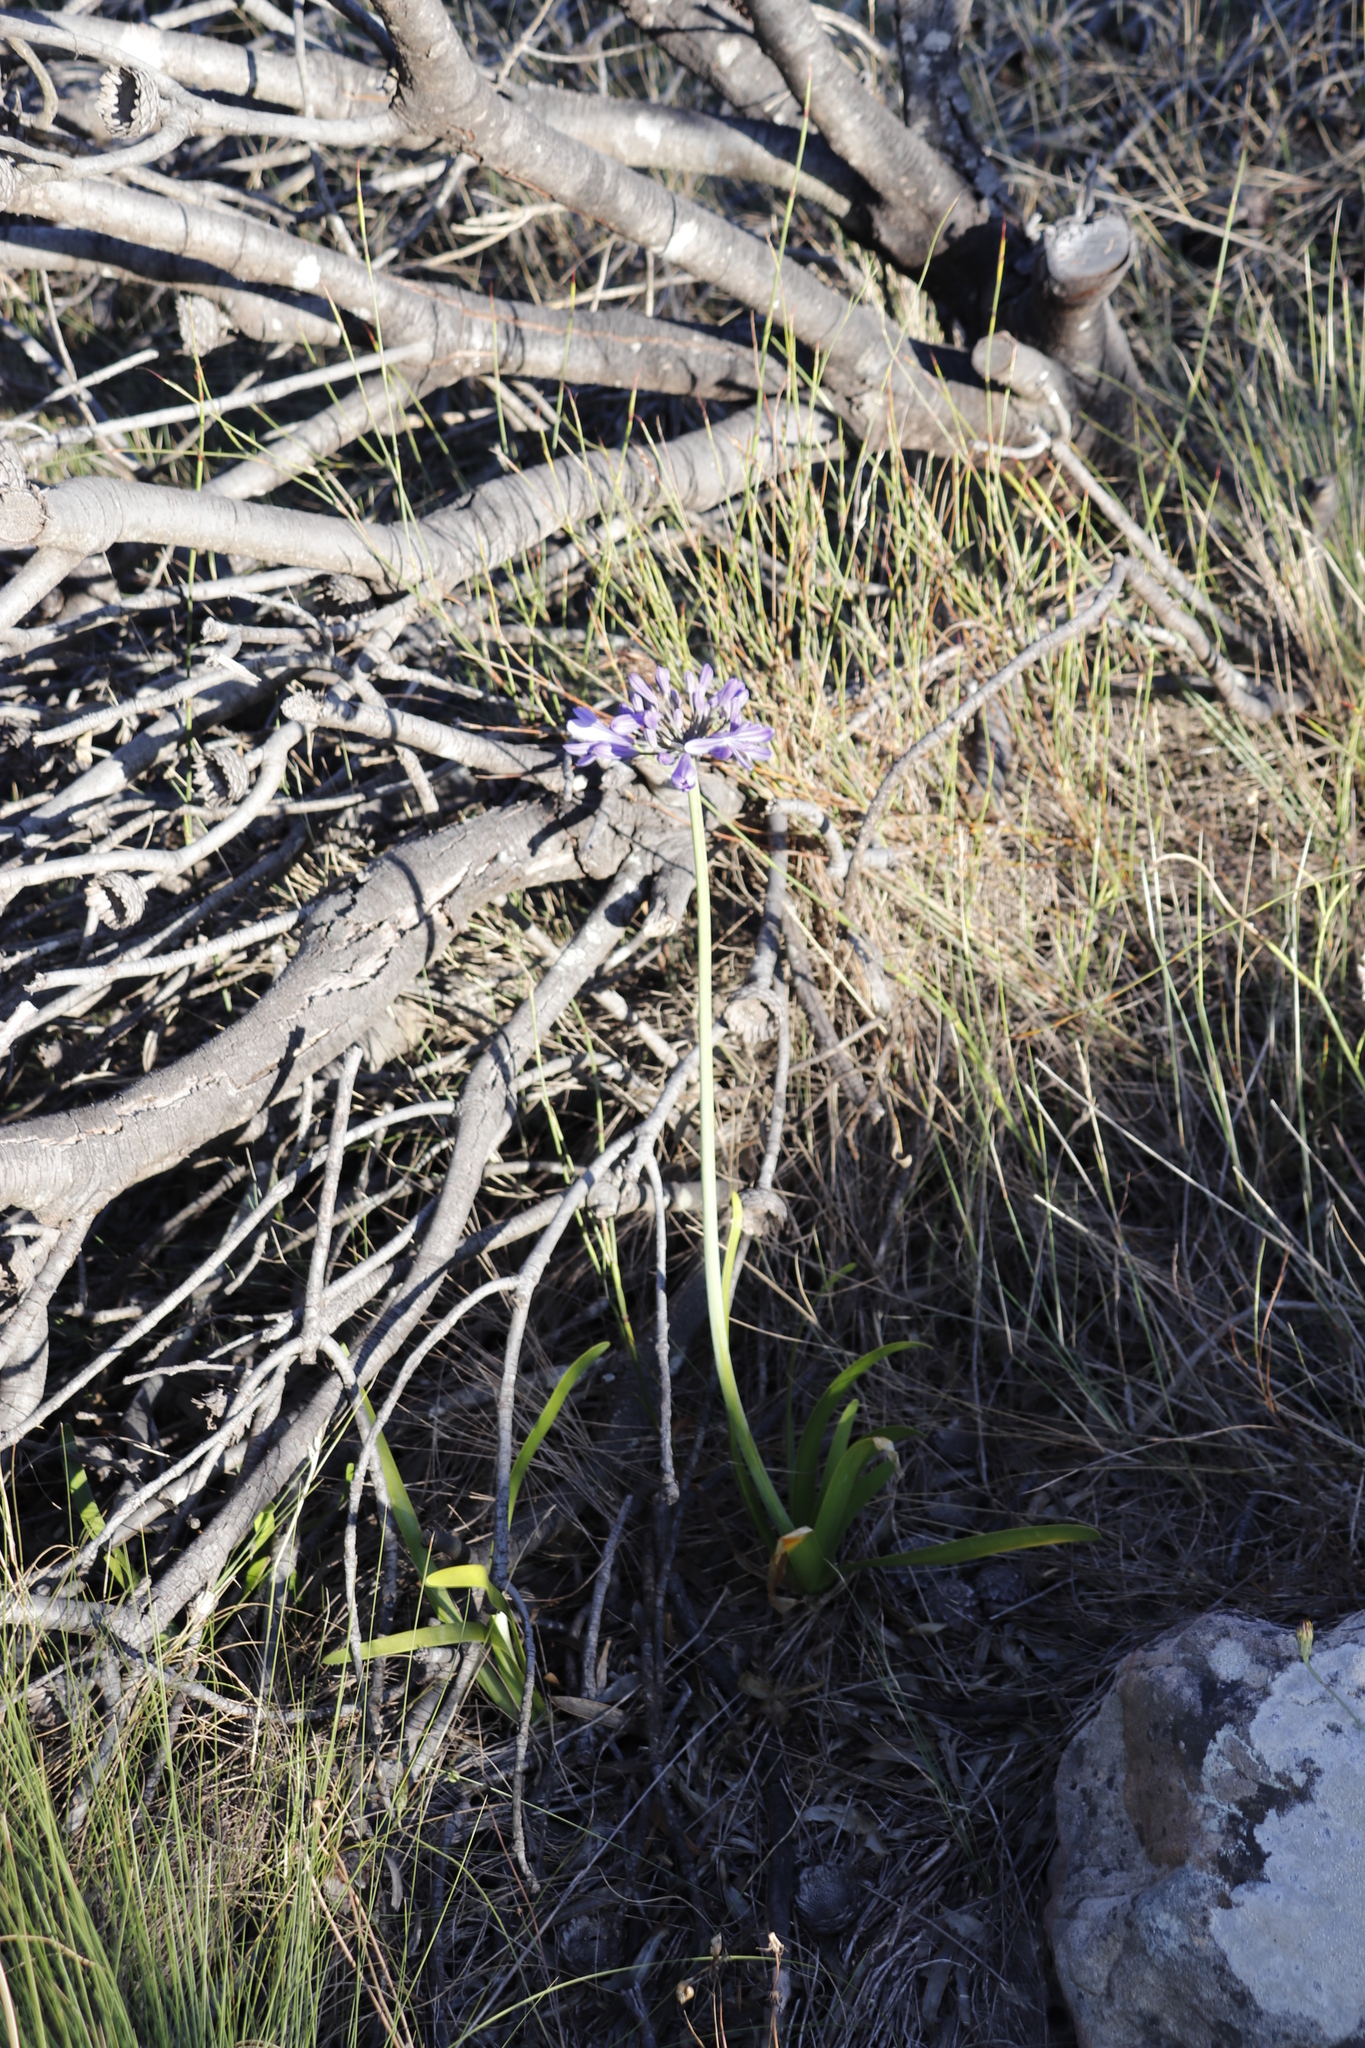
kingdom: Plantae
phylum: Tracheophyta
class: Liliopsida
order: Asparagales
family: Amaryllidaceae
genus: Agapanthus
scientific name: Agapanthus africanus
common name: Lily-of-the-nile
